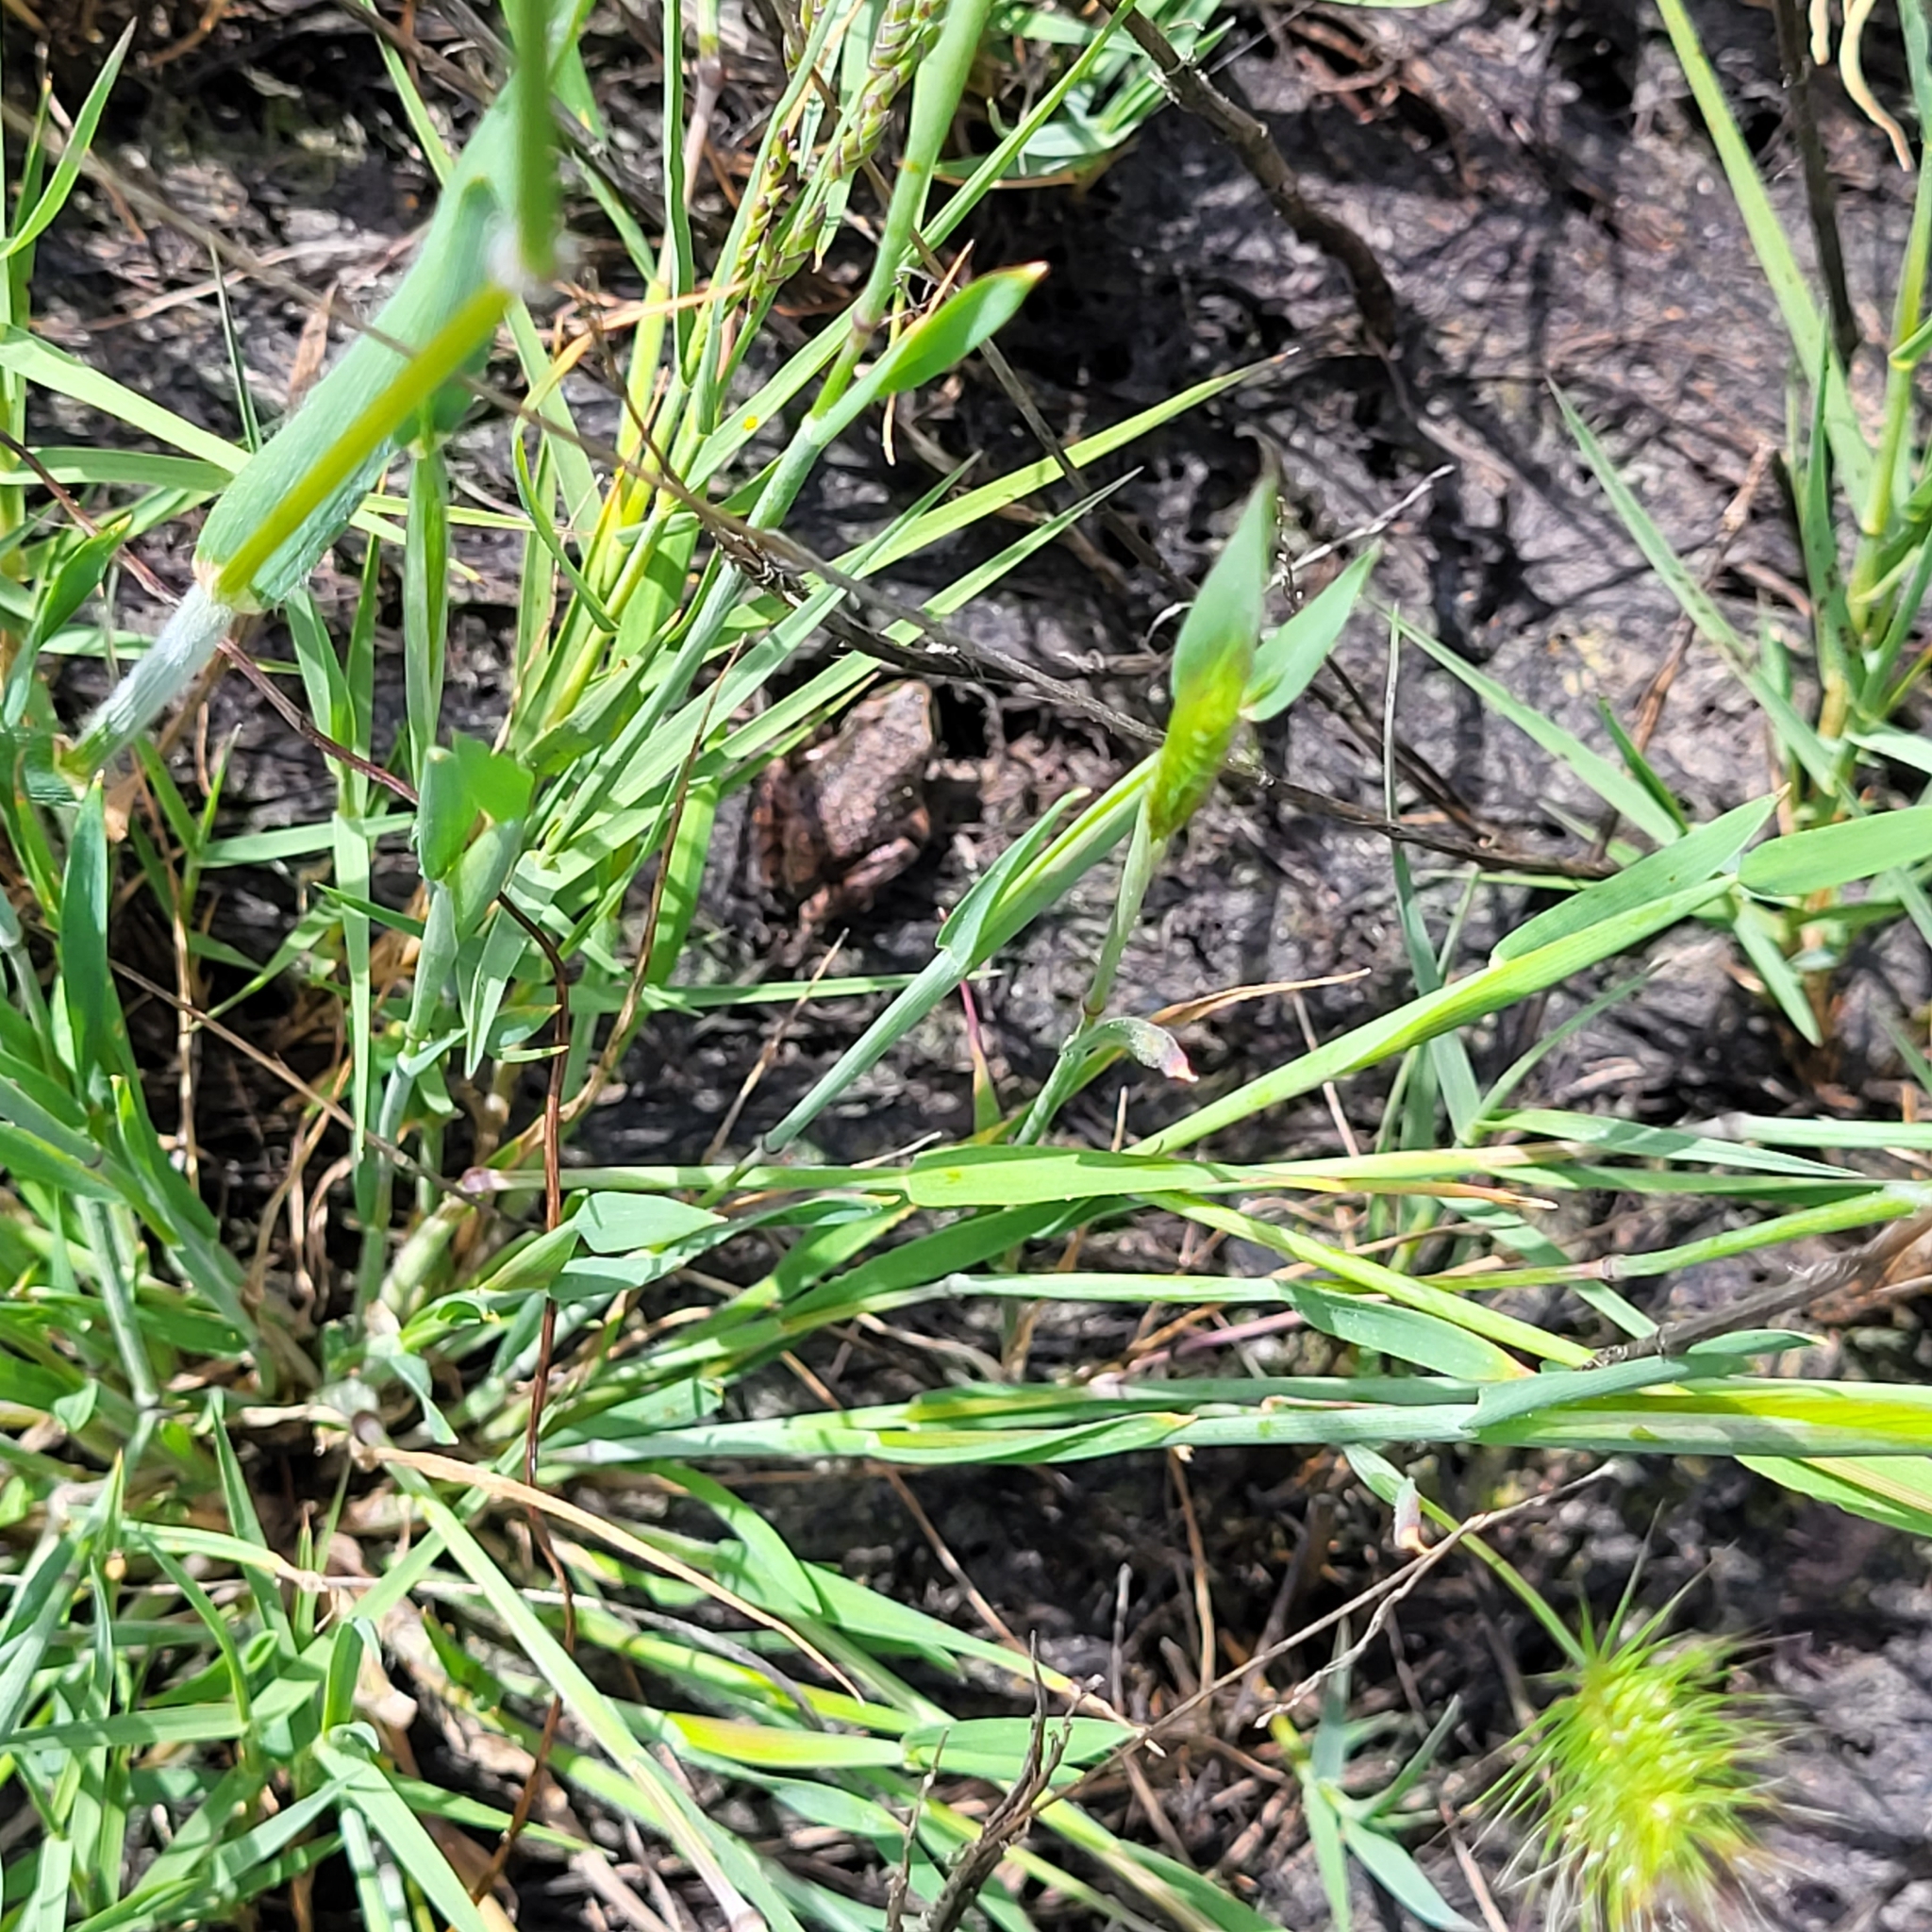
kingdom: Animalia
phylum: Chordata
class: Amphibia
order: Anura
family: Hylidae
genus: Pseudacris
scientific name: Pseudacris regilla
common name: Pacific chorus frog
